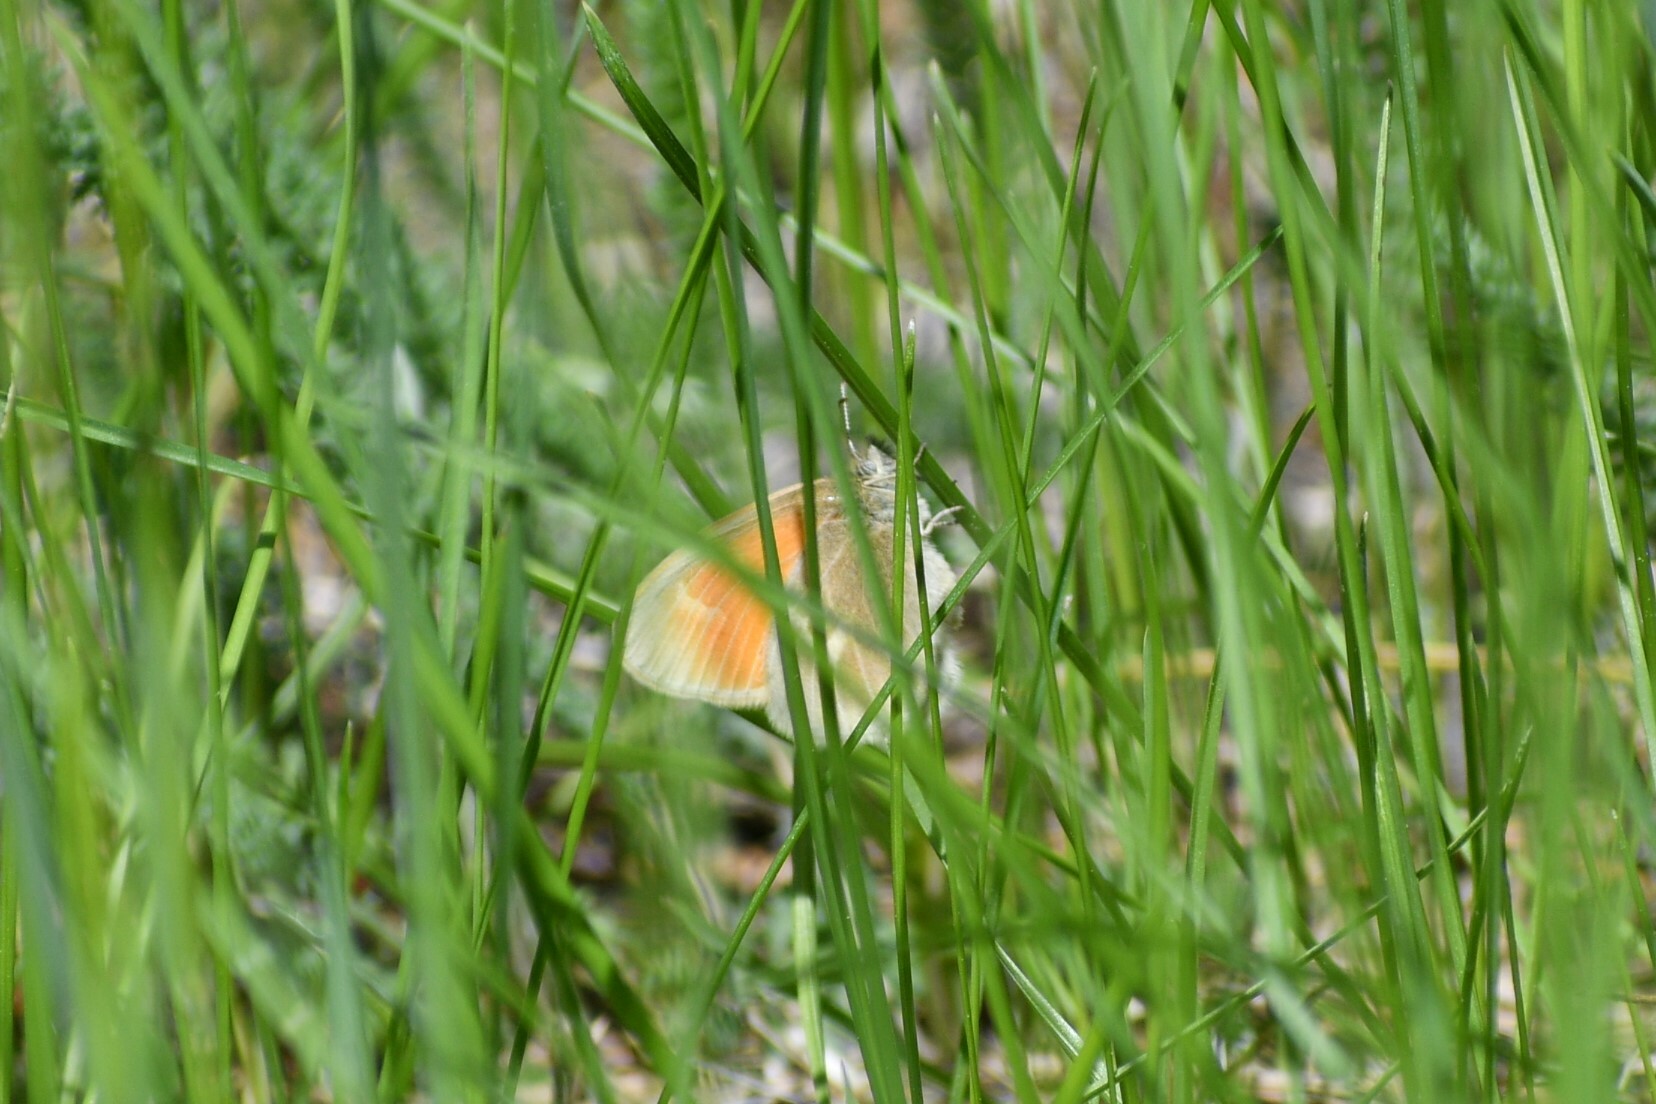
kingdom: Animalia
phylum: Arthropoda
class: Insecta
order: Lepidoptera
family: Nymphalidae
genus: Coenonympha
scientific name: Coenonympha california
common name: Common ringlet
